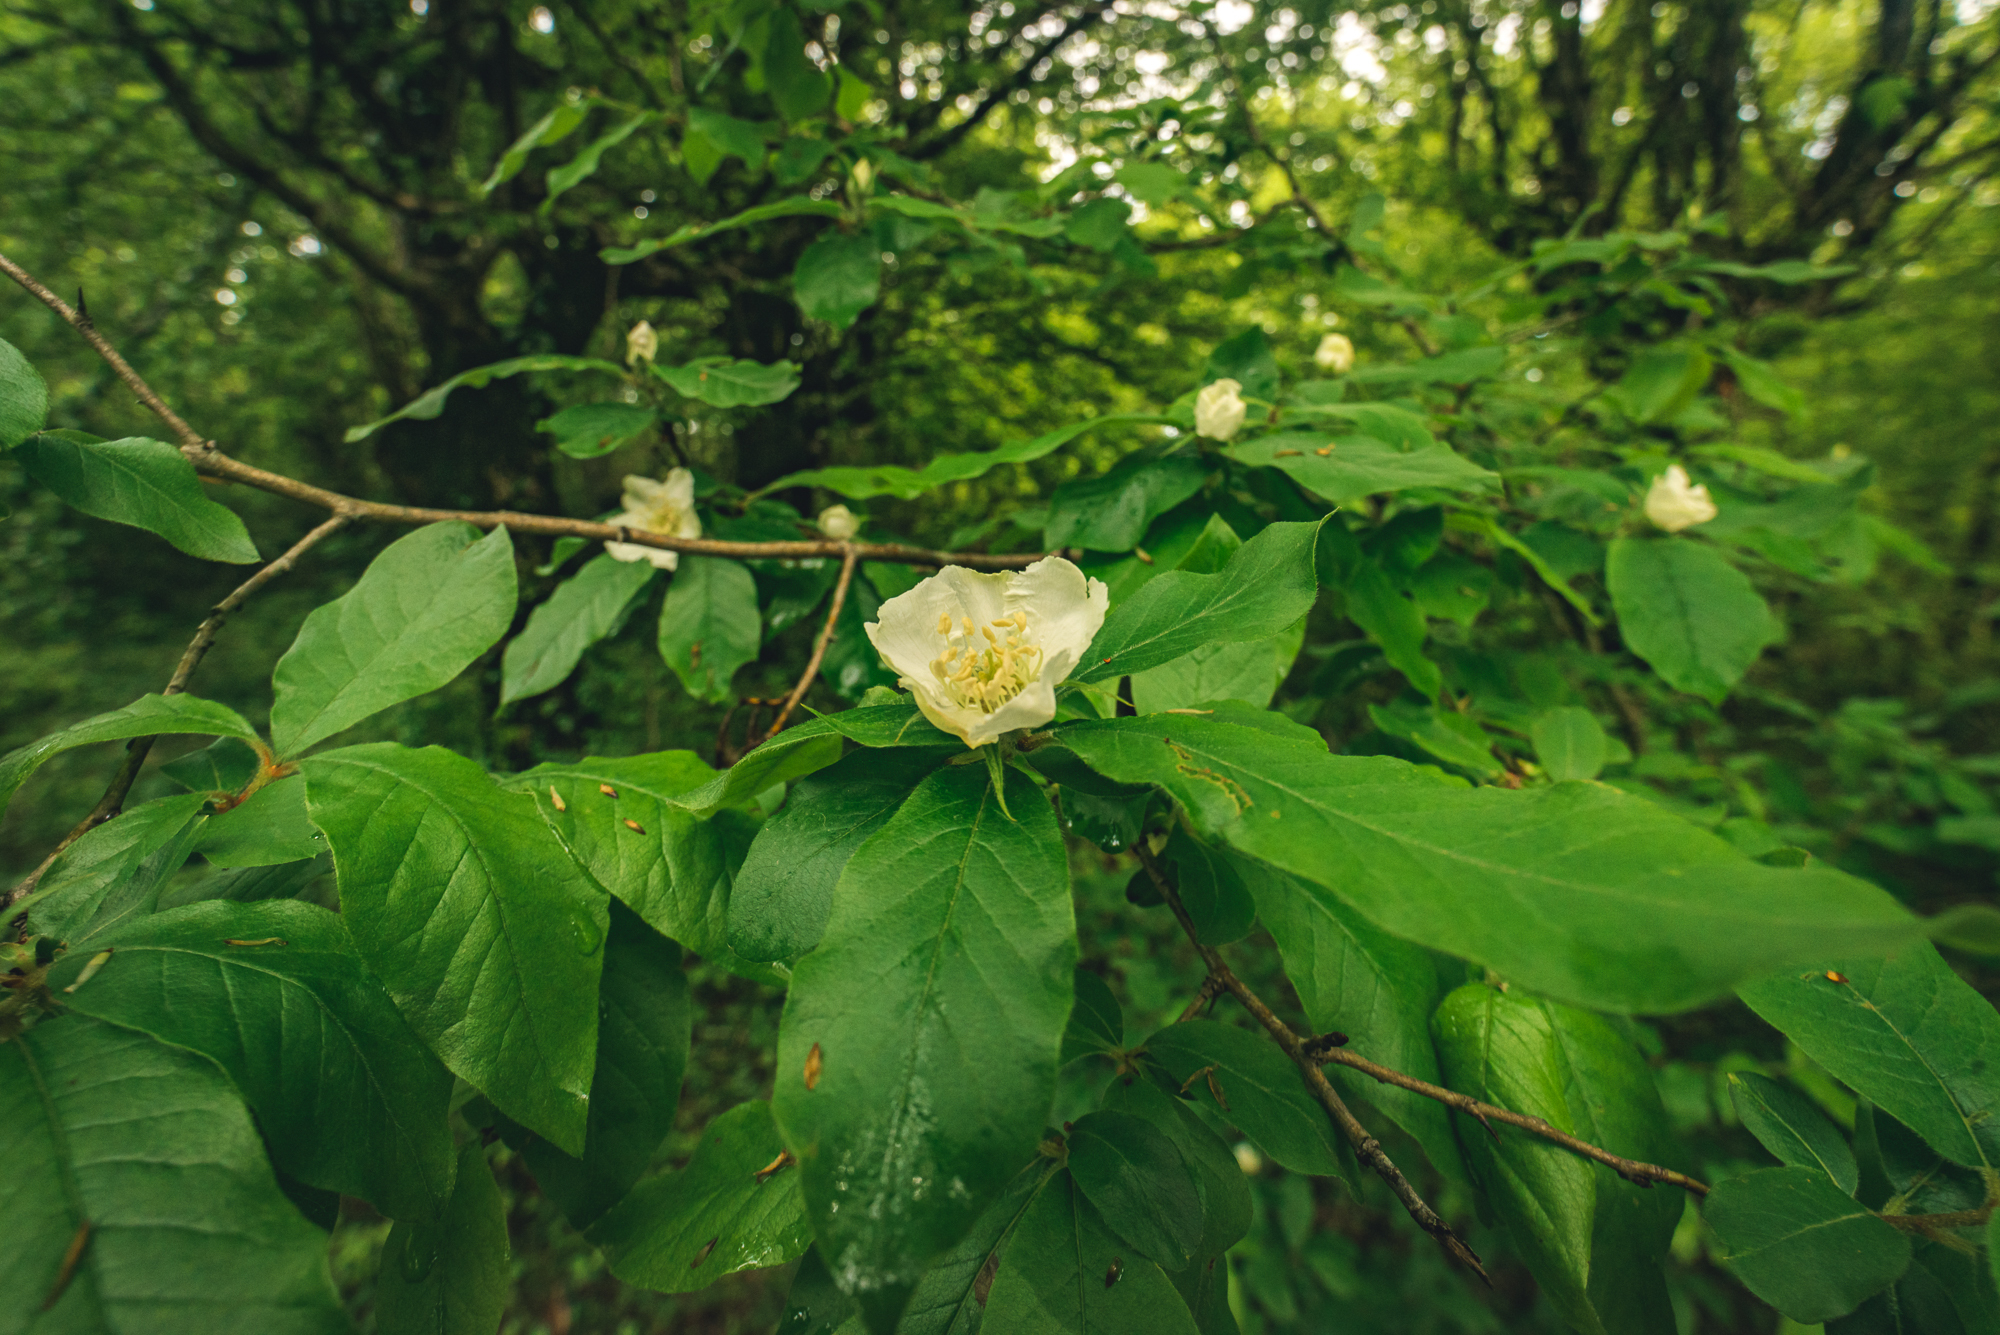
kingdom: Plantae
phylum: Tracheophyta
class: Magnoliopsida
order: Rosales
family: Rosaceae
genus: Mespilus
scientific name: Mespilus germanica
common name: Medlar
